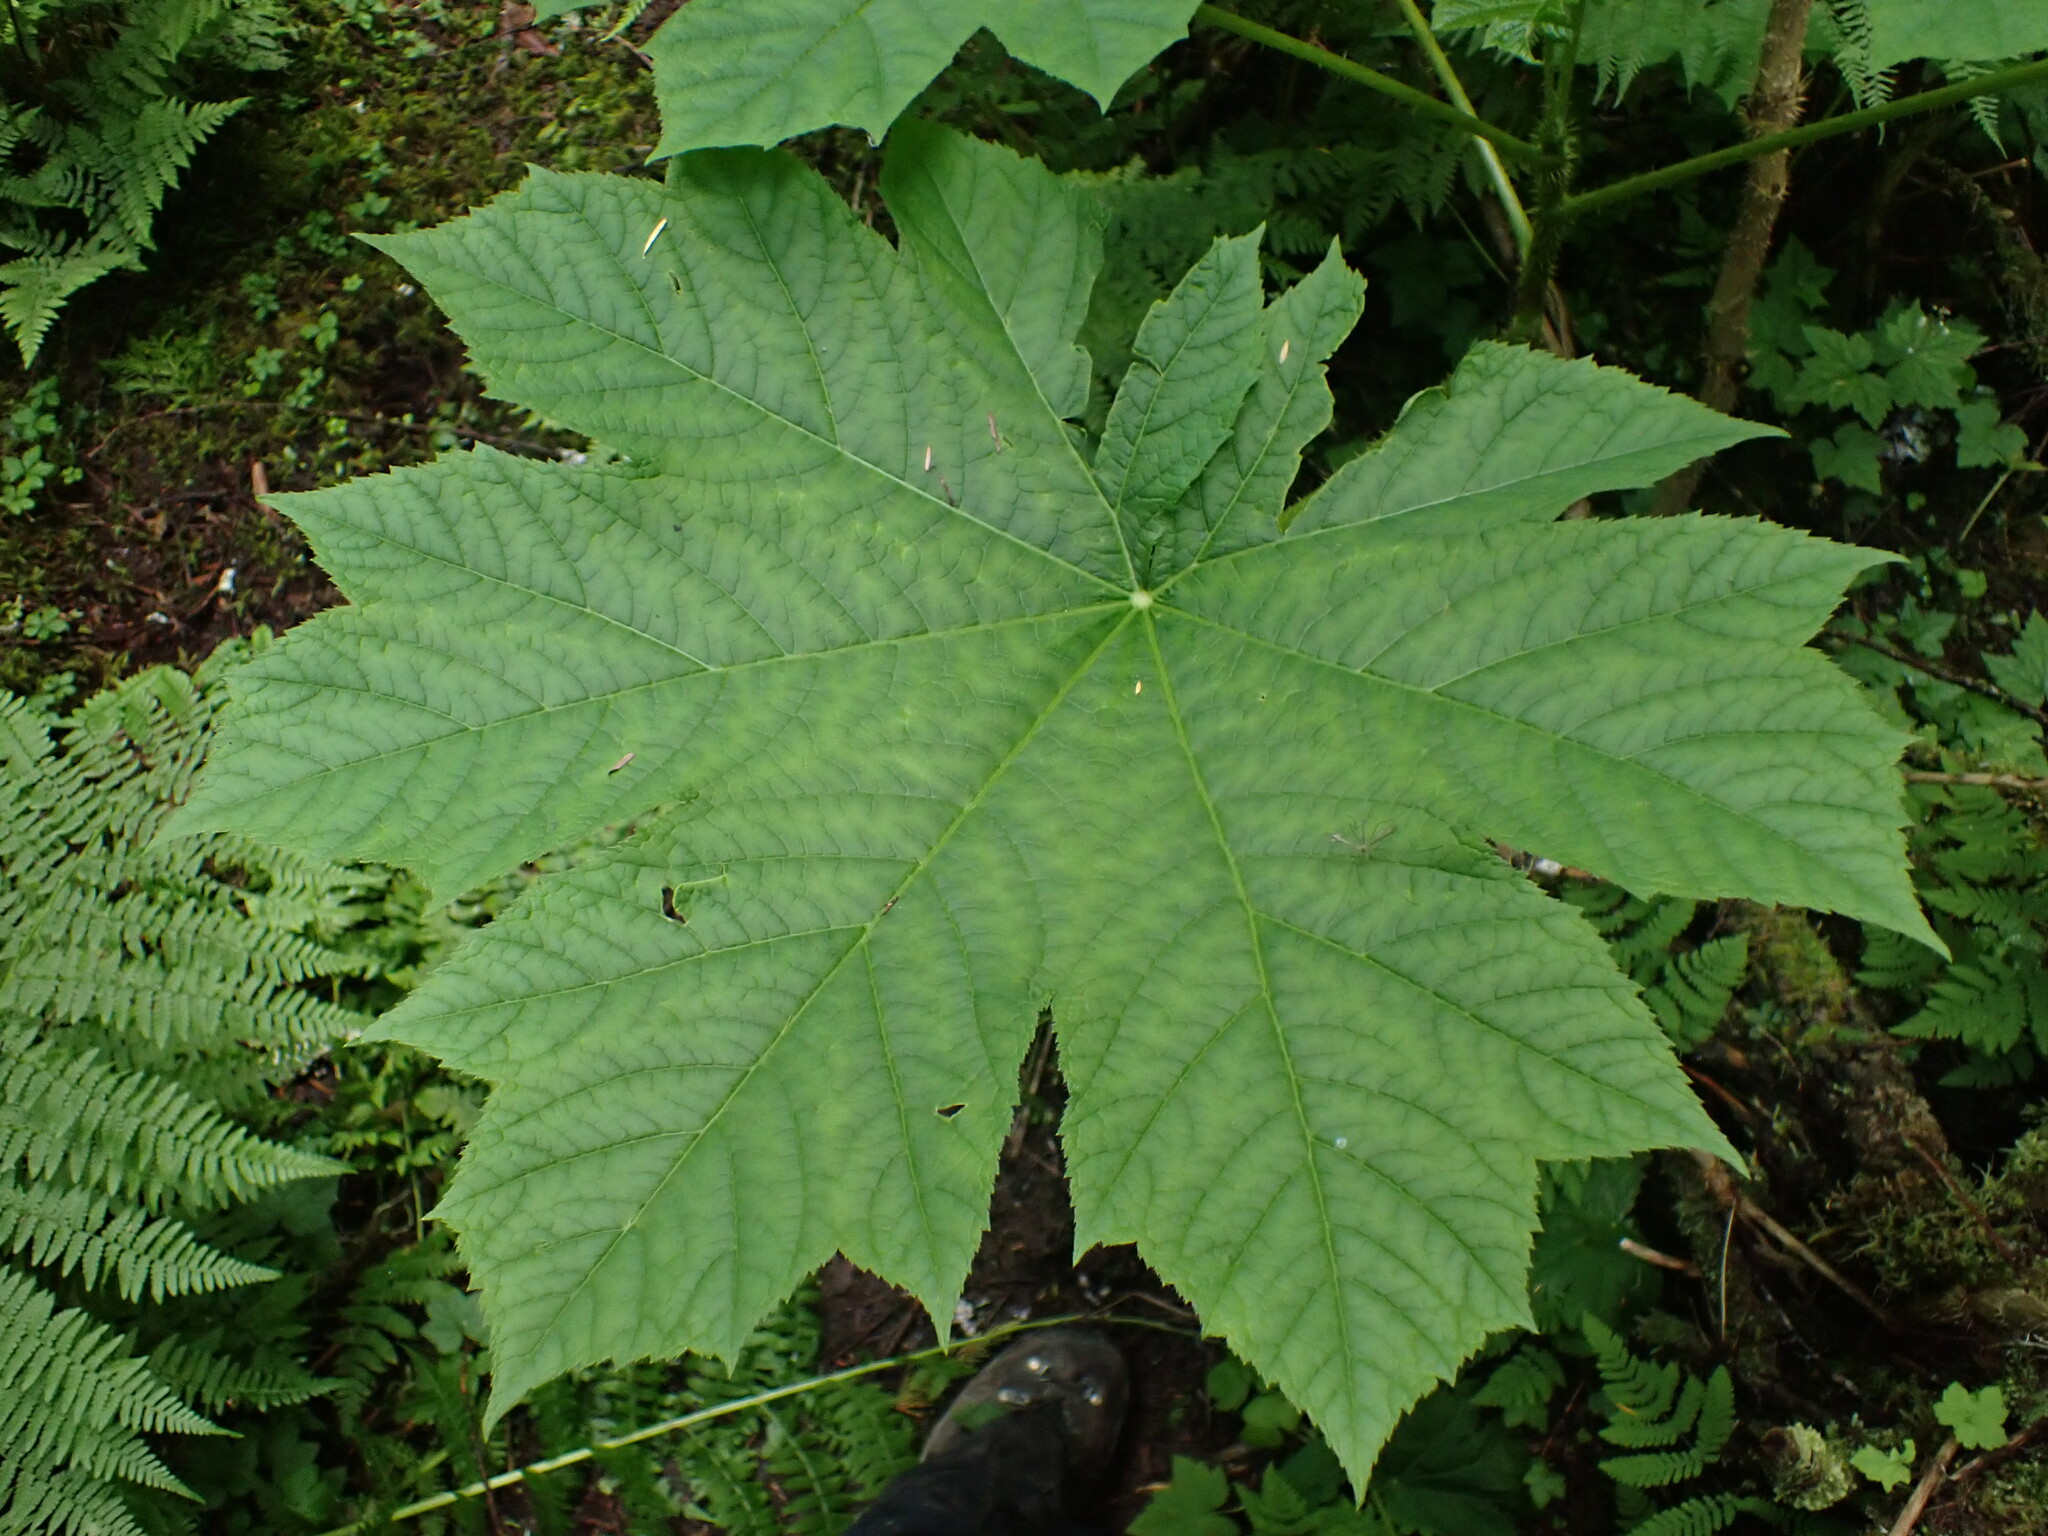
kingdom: Plantae
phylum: Tracheophyta
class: Magnoliopsida
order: Apiales
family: Araliaceae
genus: Oplopanax
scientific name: Oplopanax horridus
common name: Devil's walking-stick
